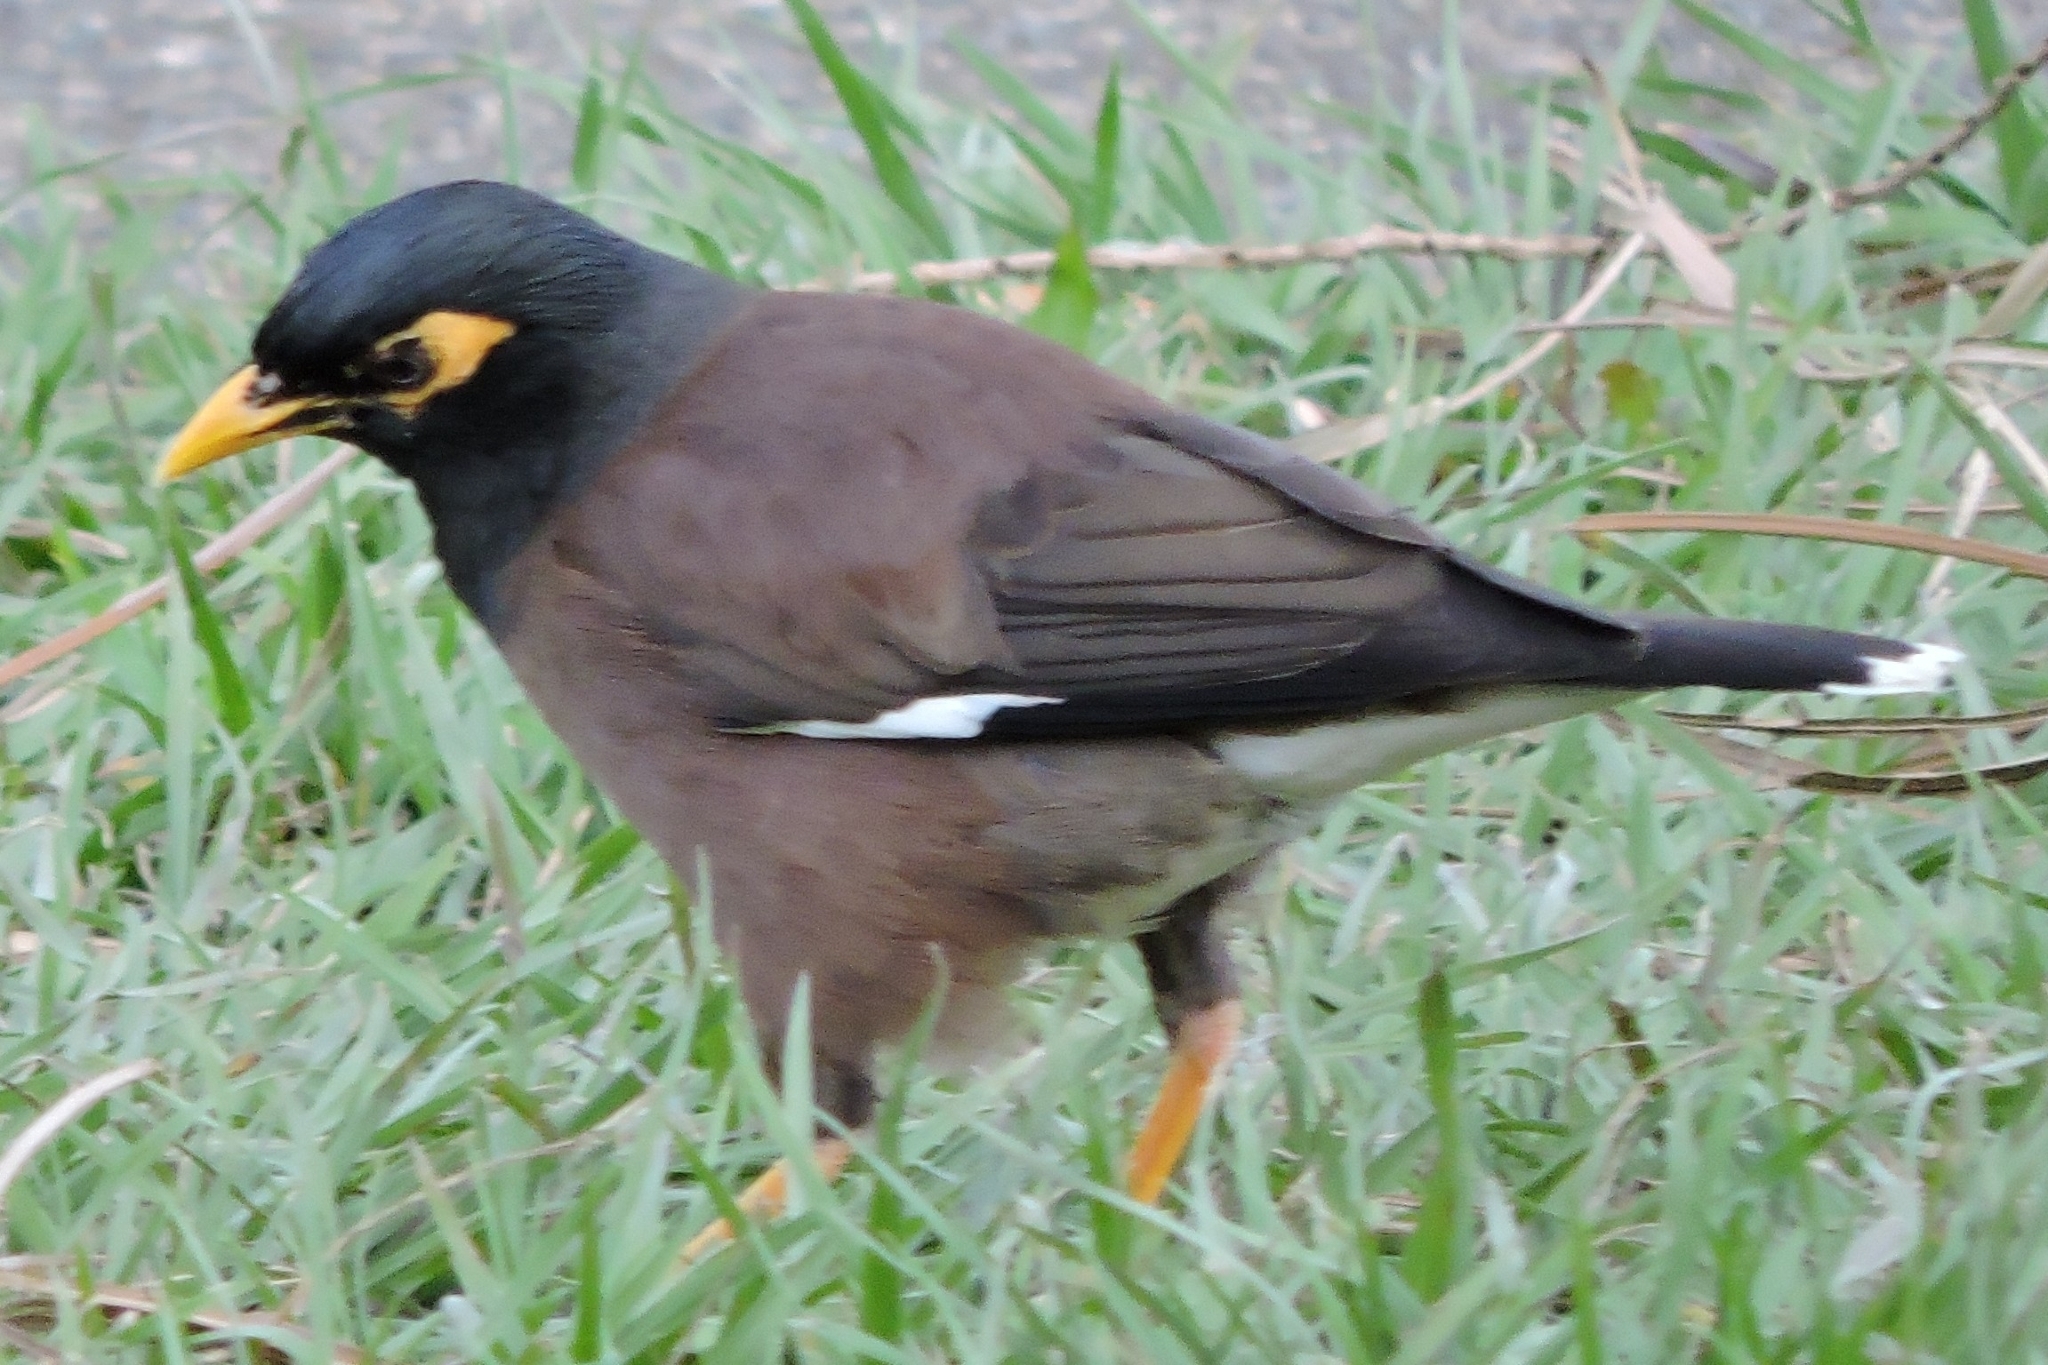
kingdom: Animalia
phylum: Chordata
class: Aves
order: Passeriformes
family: Sturnidae
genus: Acridotheres
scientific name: Acridotheres tristis
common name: Common myna
